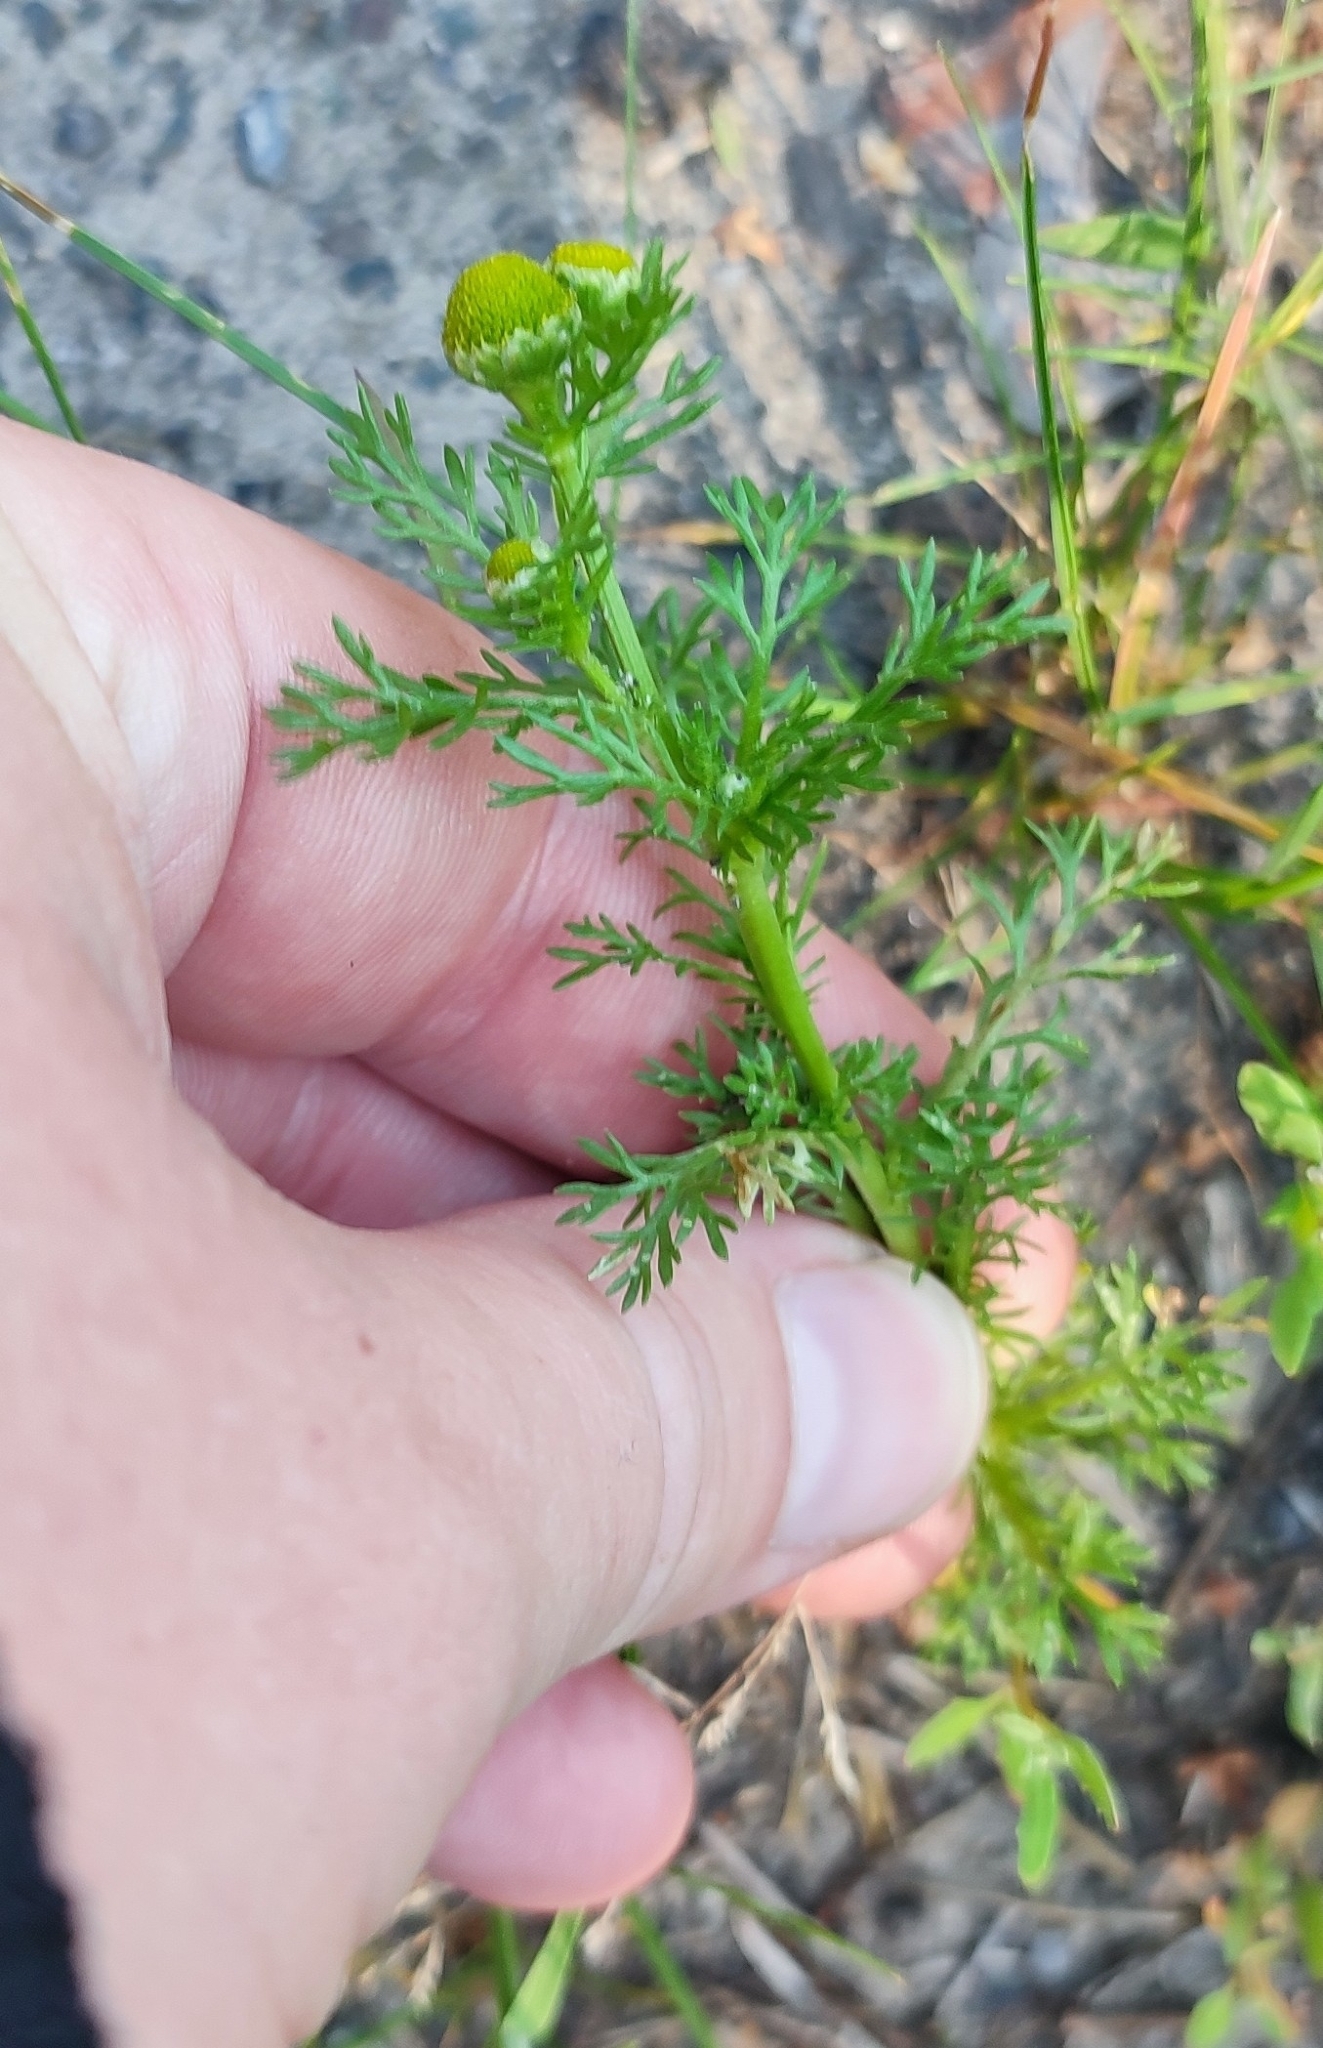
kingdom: Plantae
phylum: Tracheophyta
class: Magnoliopsida
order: Asterales
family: Asteraceae
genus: Matricaria
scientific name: Matricaria discoidea
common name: Disc mayweed
